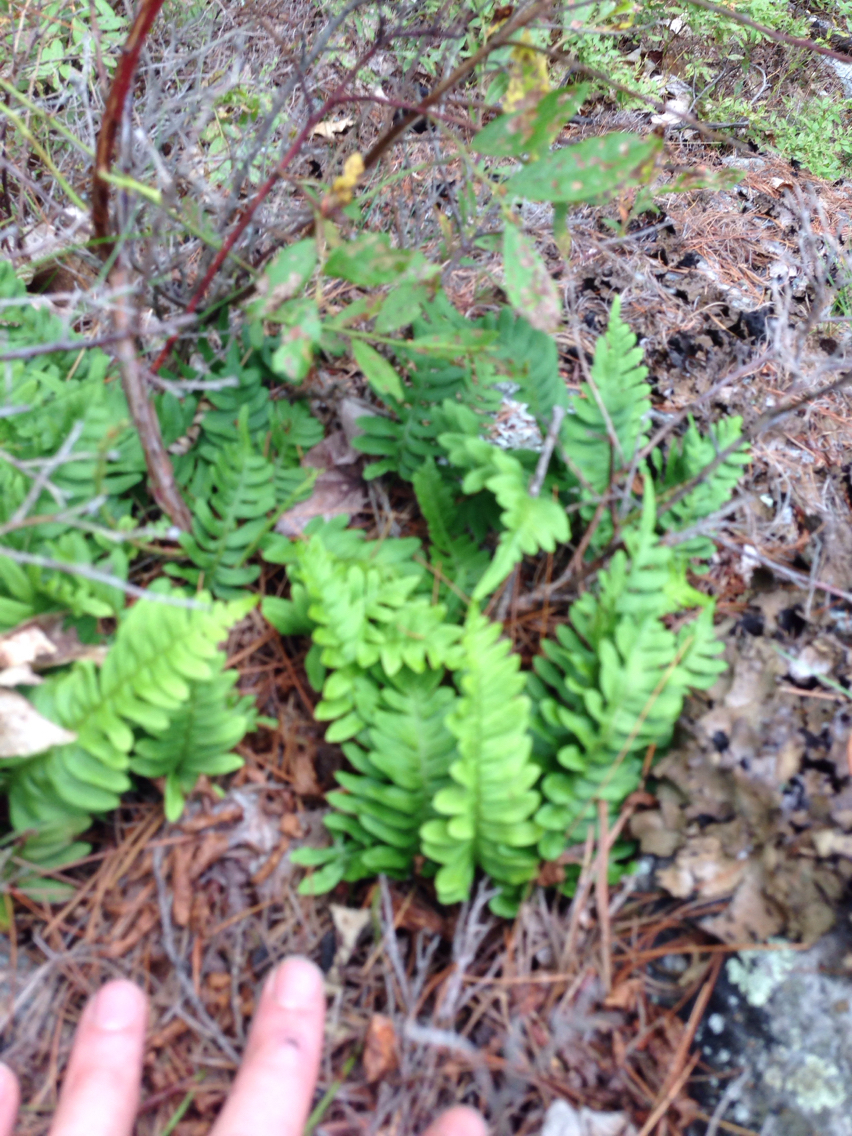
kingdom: Plantae
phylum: Tracheophyta
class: Polypodiopsida
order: Polypodiales
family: Polypodiaceae
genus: Polypodium
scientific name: Polypodium virginianum
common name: American wall fern
